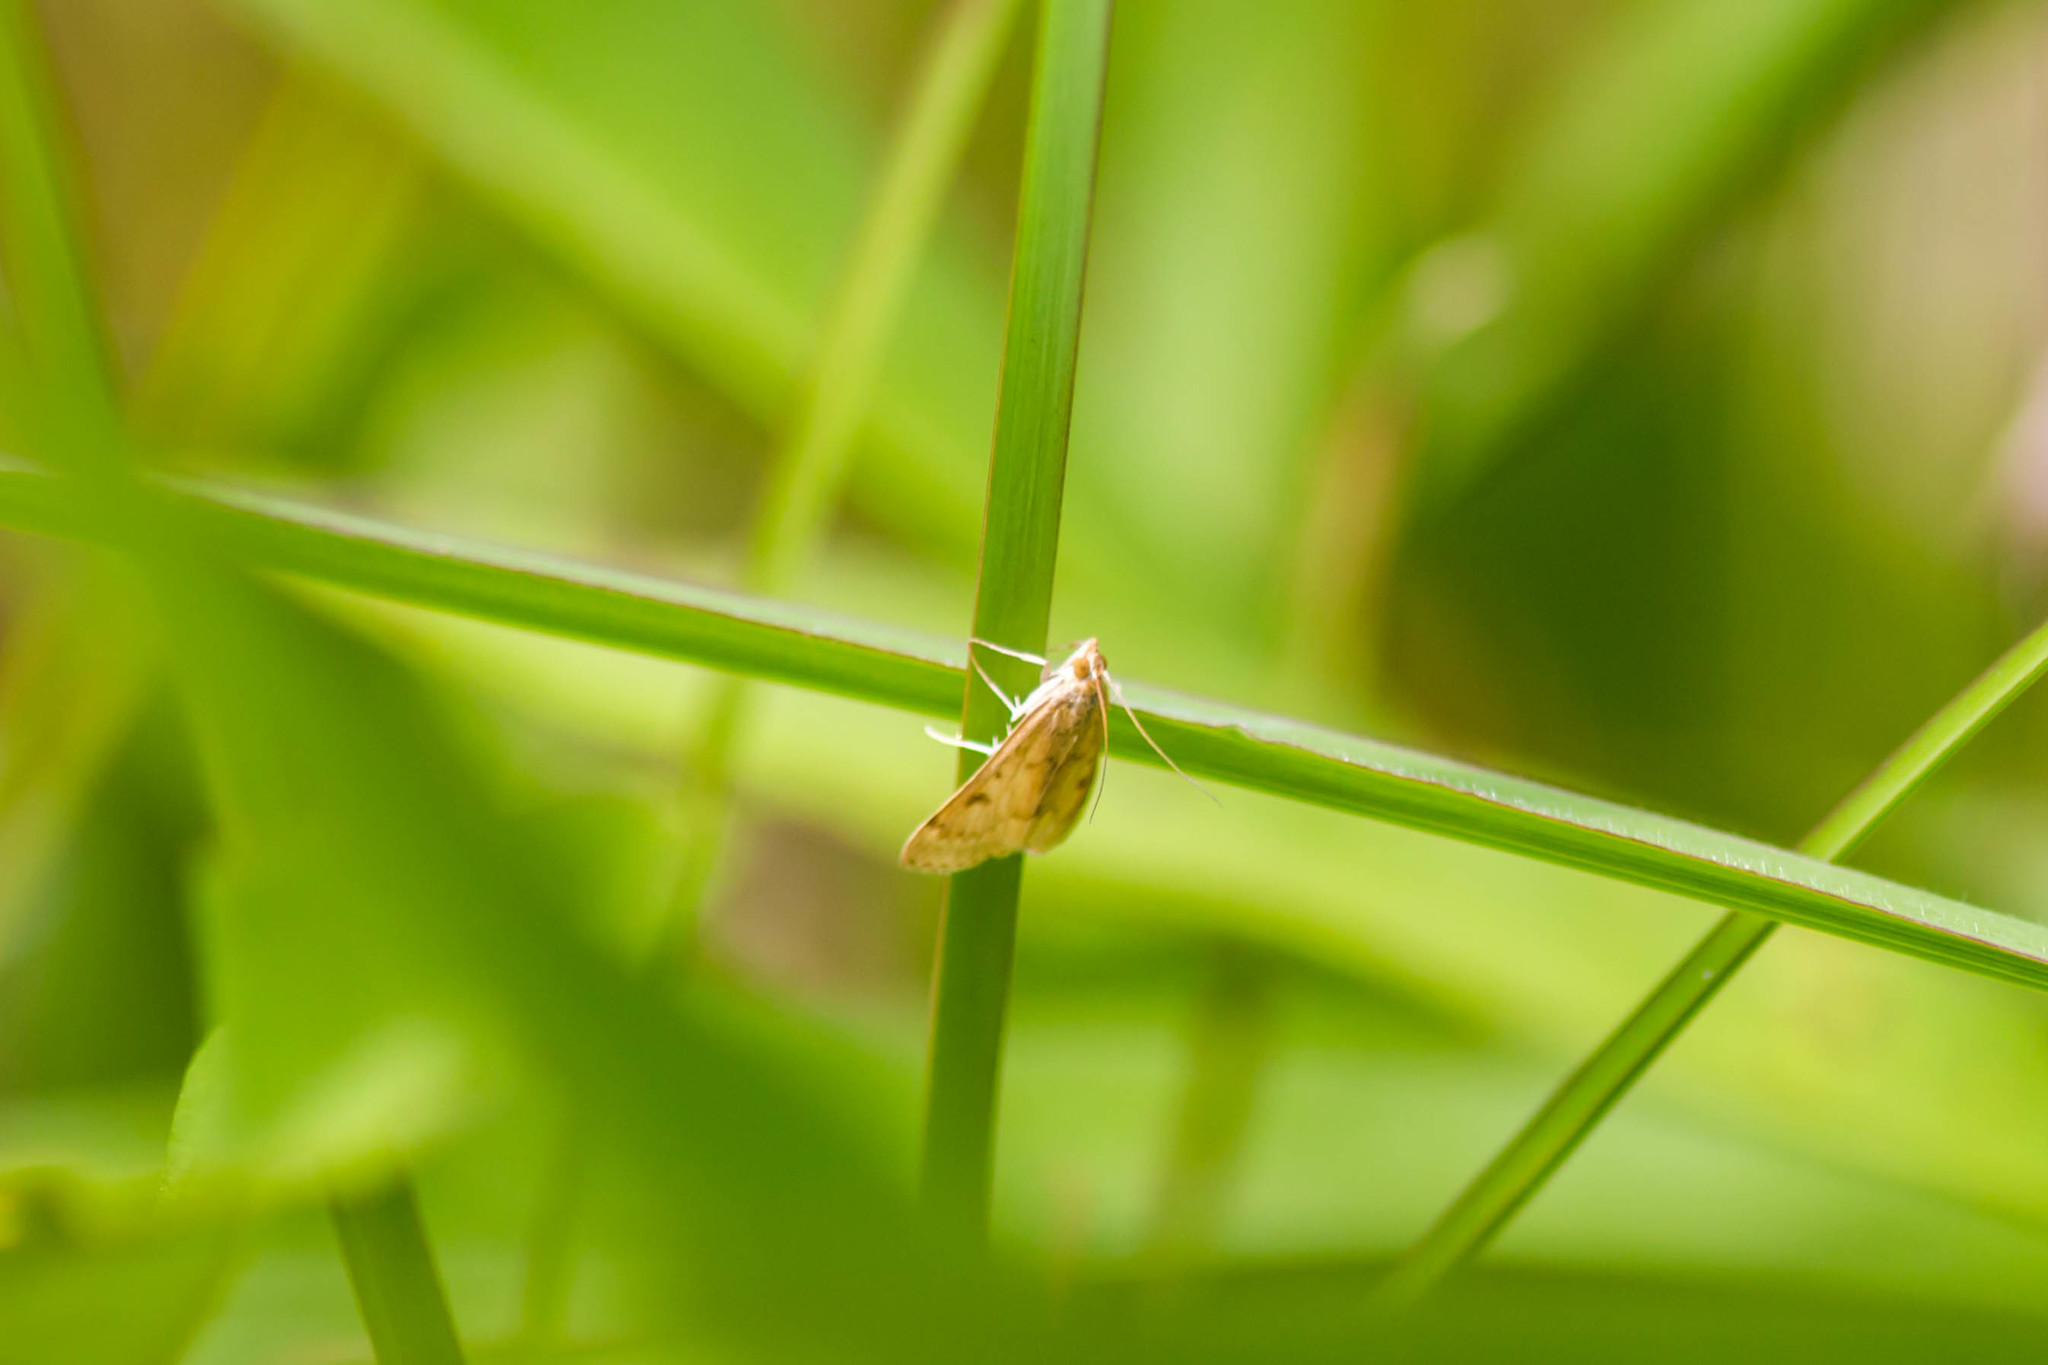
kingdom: Animalia
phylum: Arthropoda
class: Insecta
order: Lepidoptera
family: Crambidae
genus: Udea
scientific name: Udea rubigalis
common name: Celery leaftier moth
